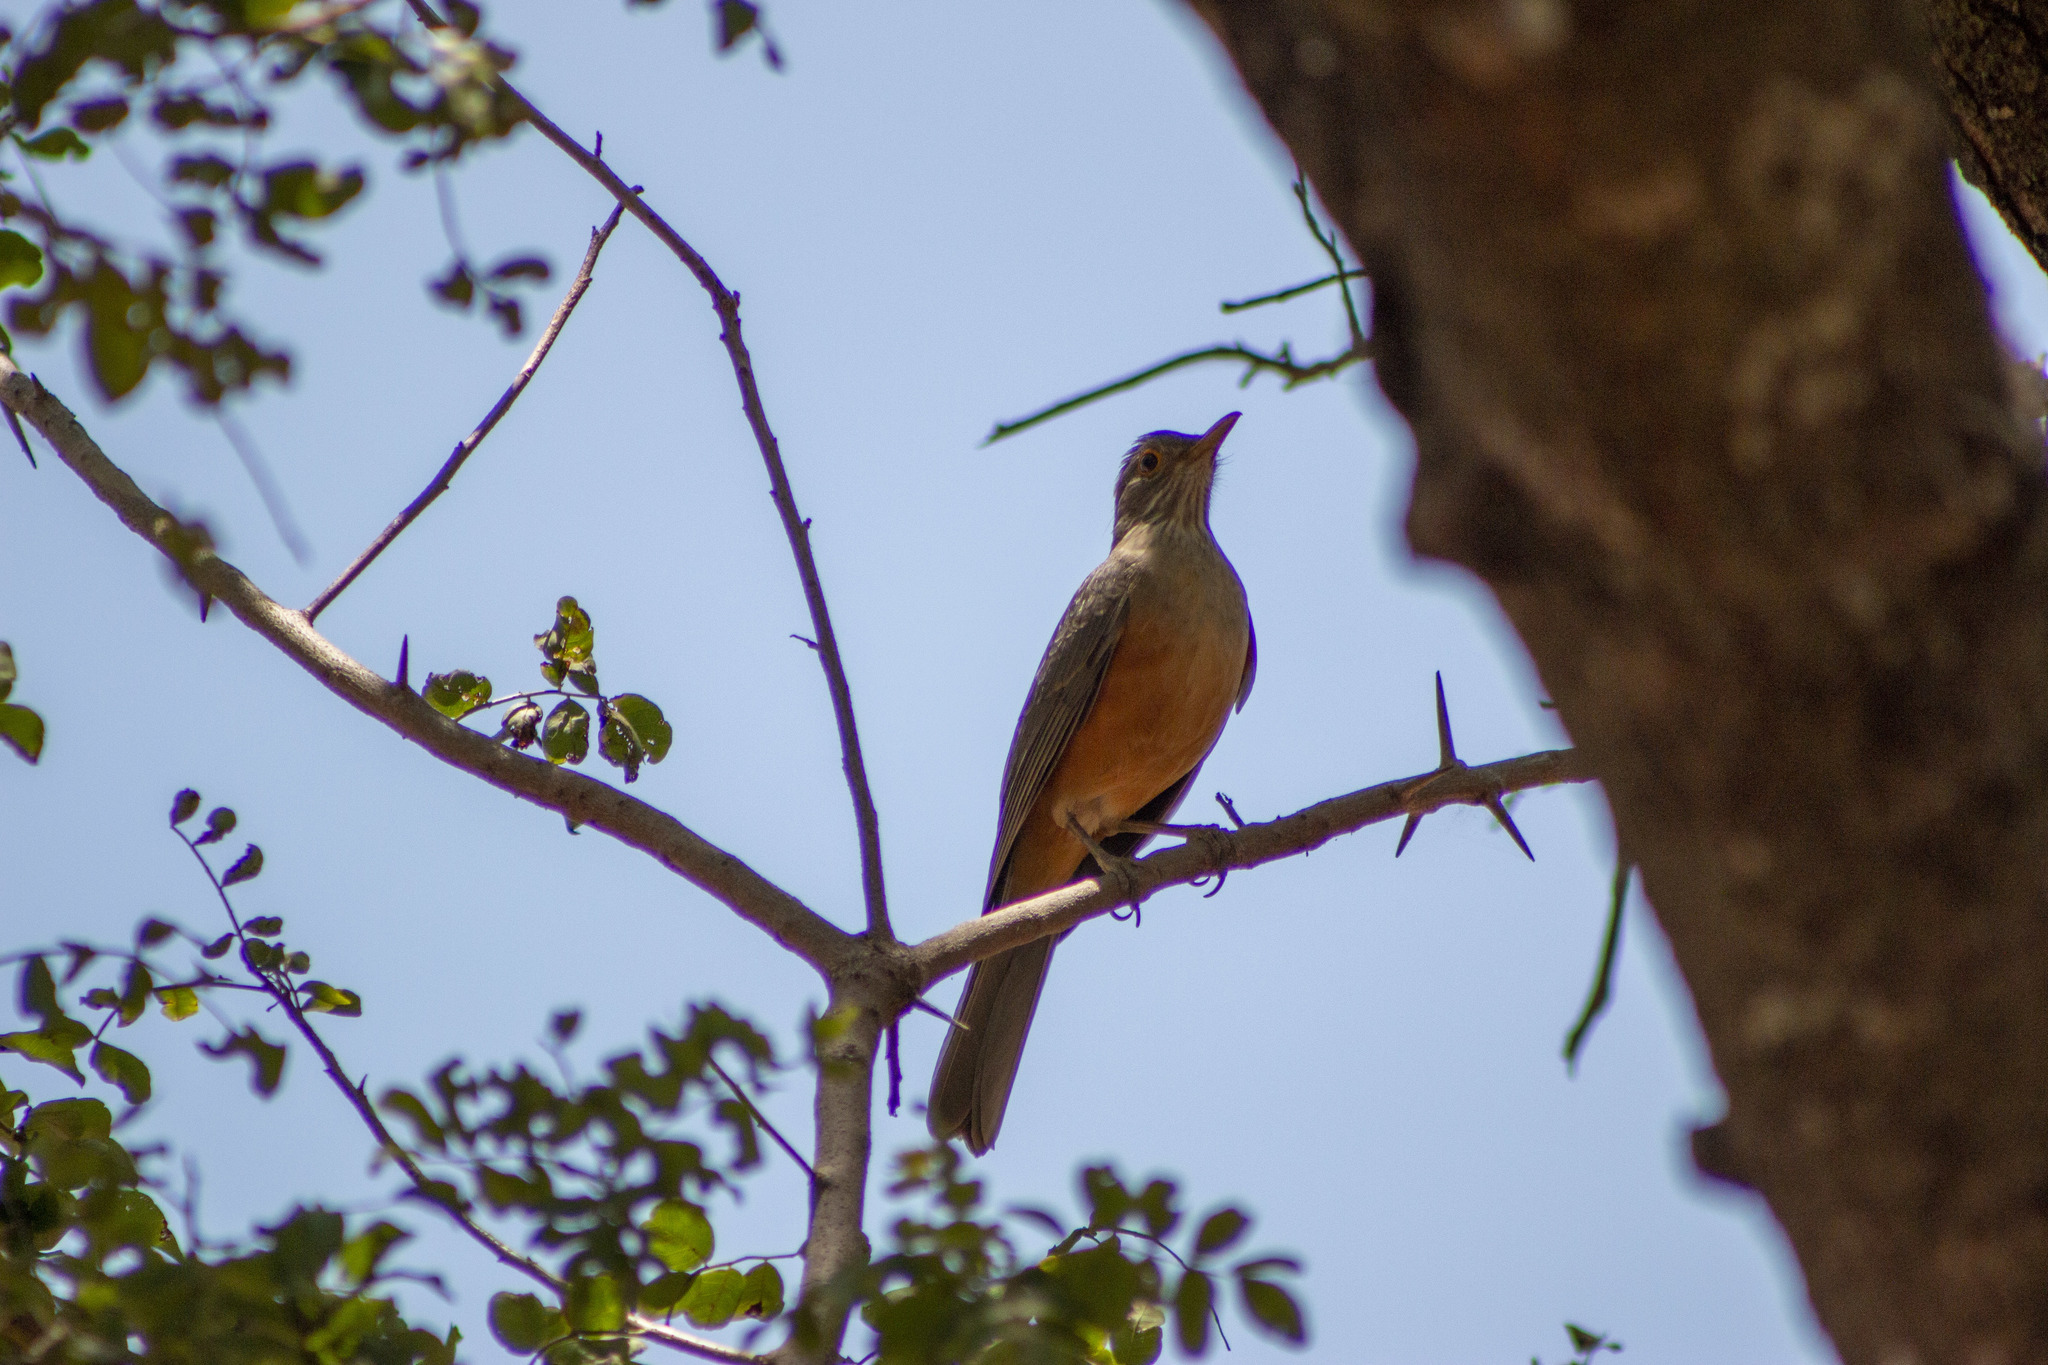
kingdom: Animalia
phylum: Chordata
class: Aves
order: Passeriformes
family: Turdidae
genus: Turdus
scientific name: Turdus rufiventris
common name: Rufous-bellied thrush
